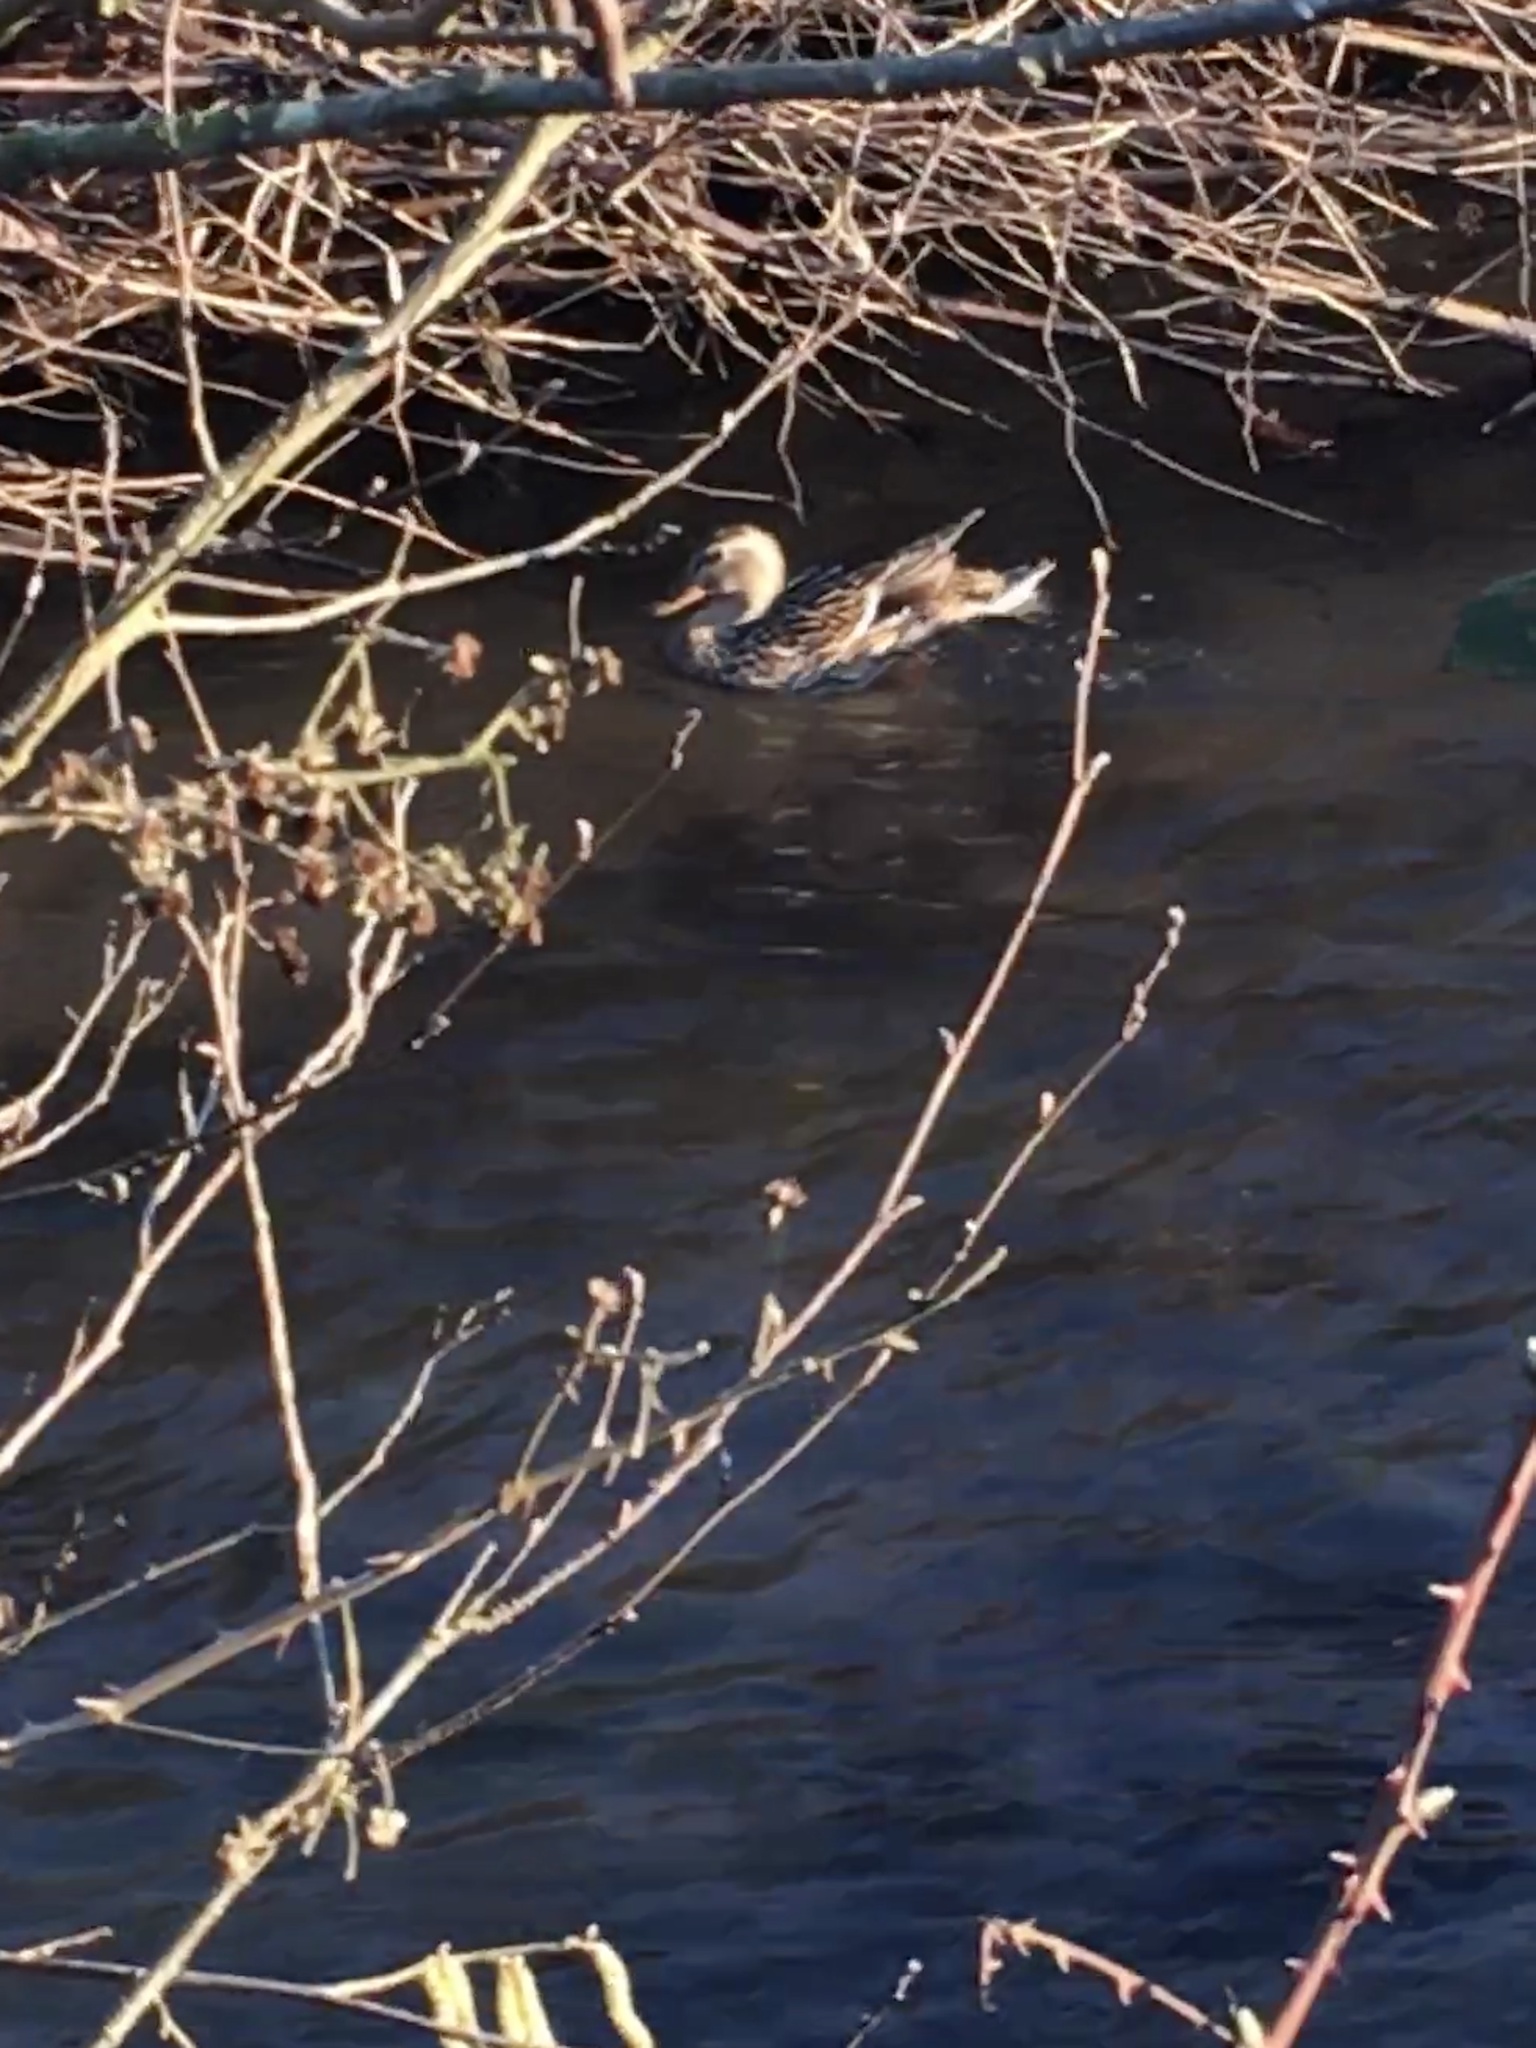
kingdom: Animalia
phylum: Chordata
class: Aves
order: Anseriformes
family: Anatidae
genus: Anas
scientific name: Anas platyrhynchos
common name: Mallard
